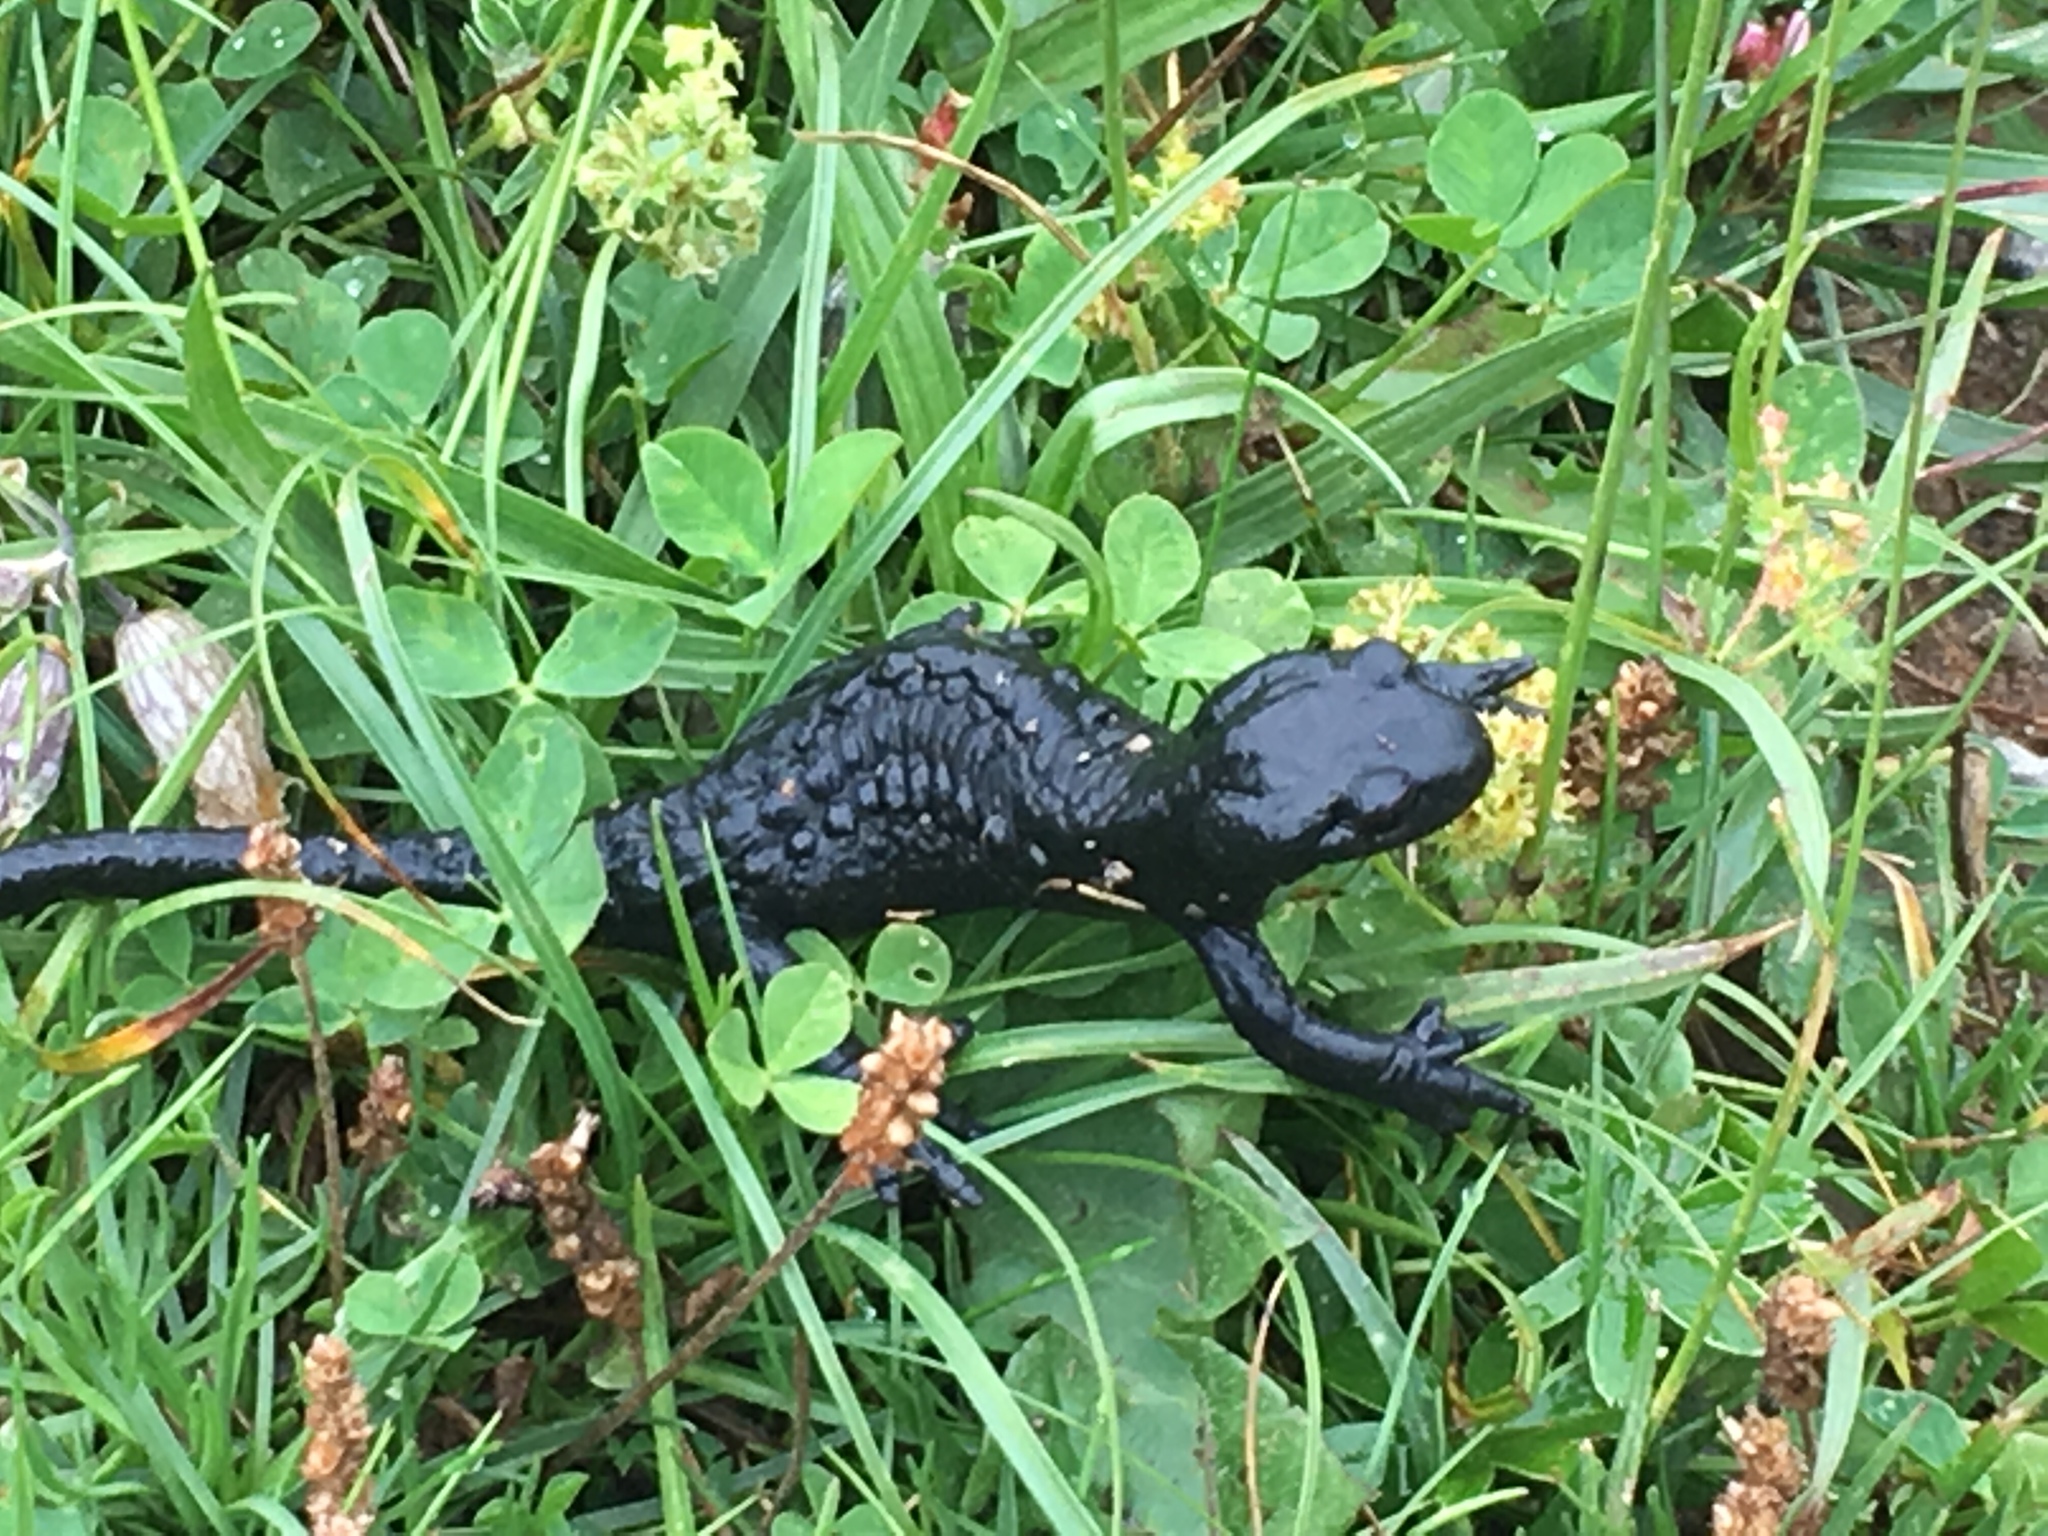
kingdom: Animalia
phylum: Chordata
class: Amphibia
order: Caudata
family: Salamandridae
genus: Salamandra
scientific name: Salamandra atra
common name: Alpine salamander
